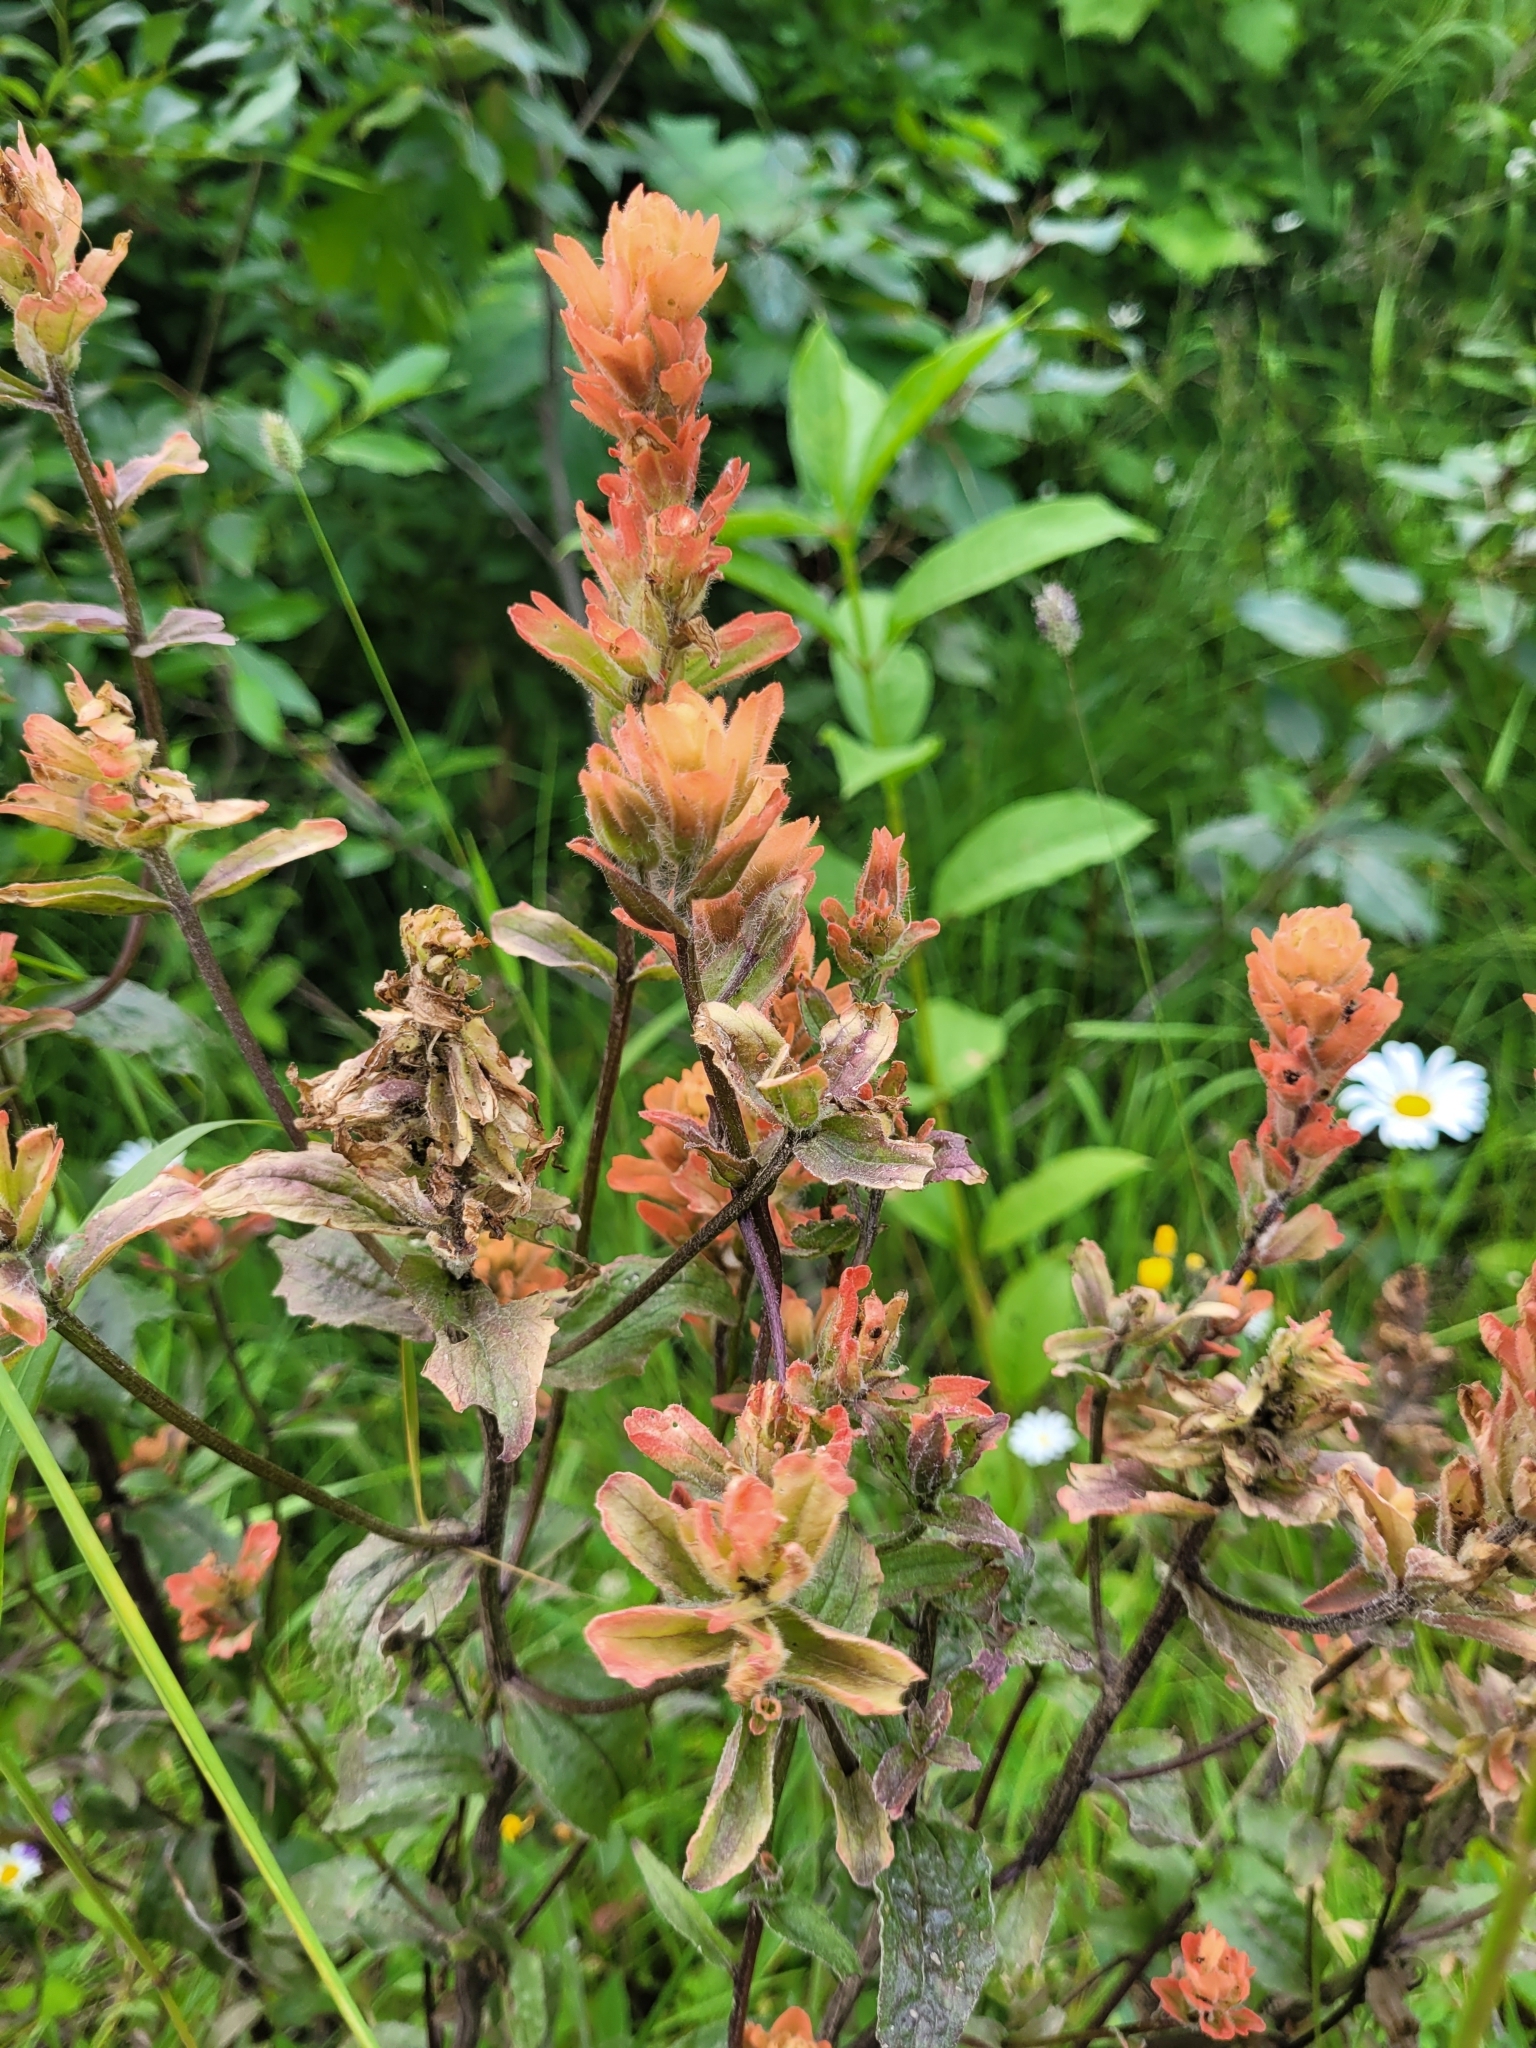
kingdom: Plantae
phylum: Tracheophyta
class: Magnoliopsida
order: Lamiales
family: Orobanchaceae
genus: Castilleja
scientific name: Castilleja miniata
